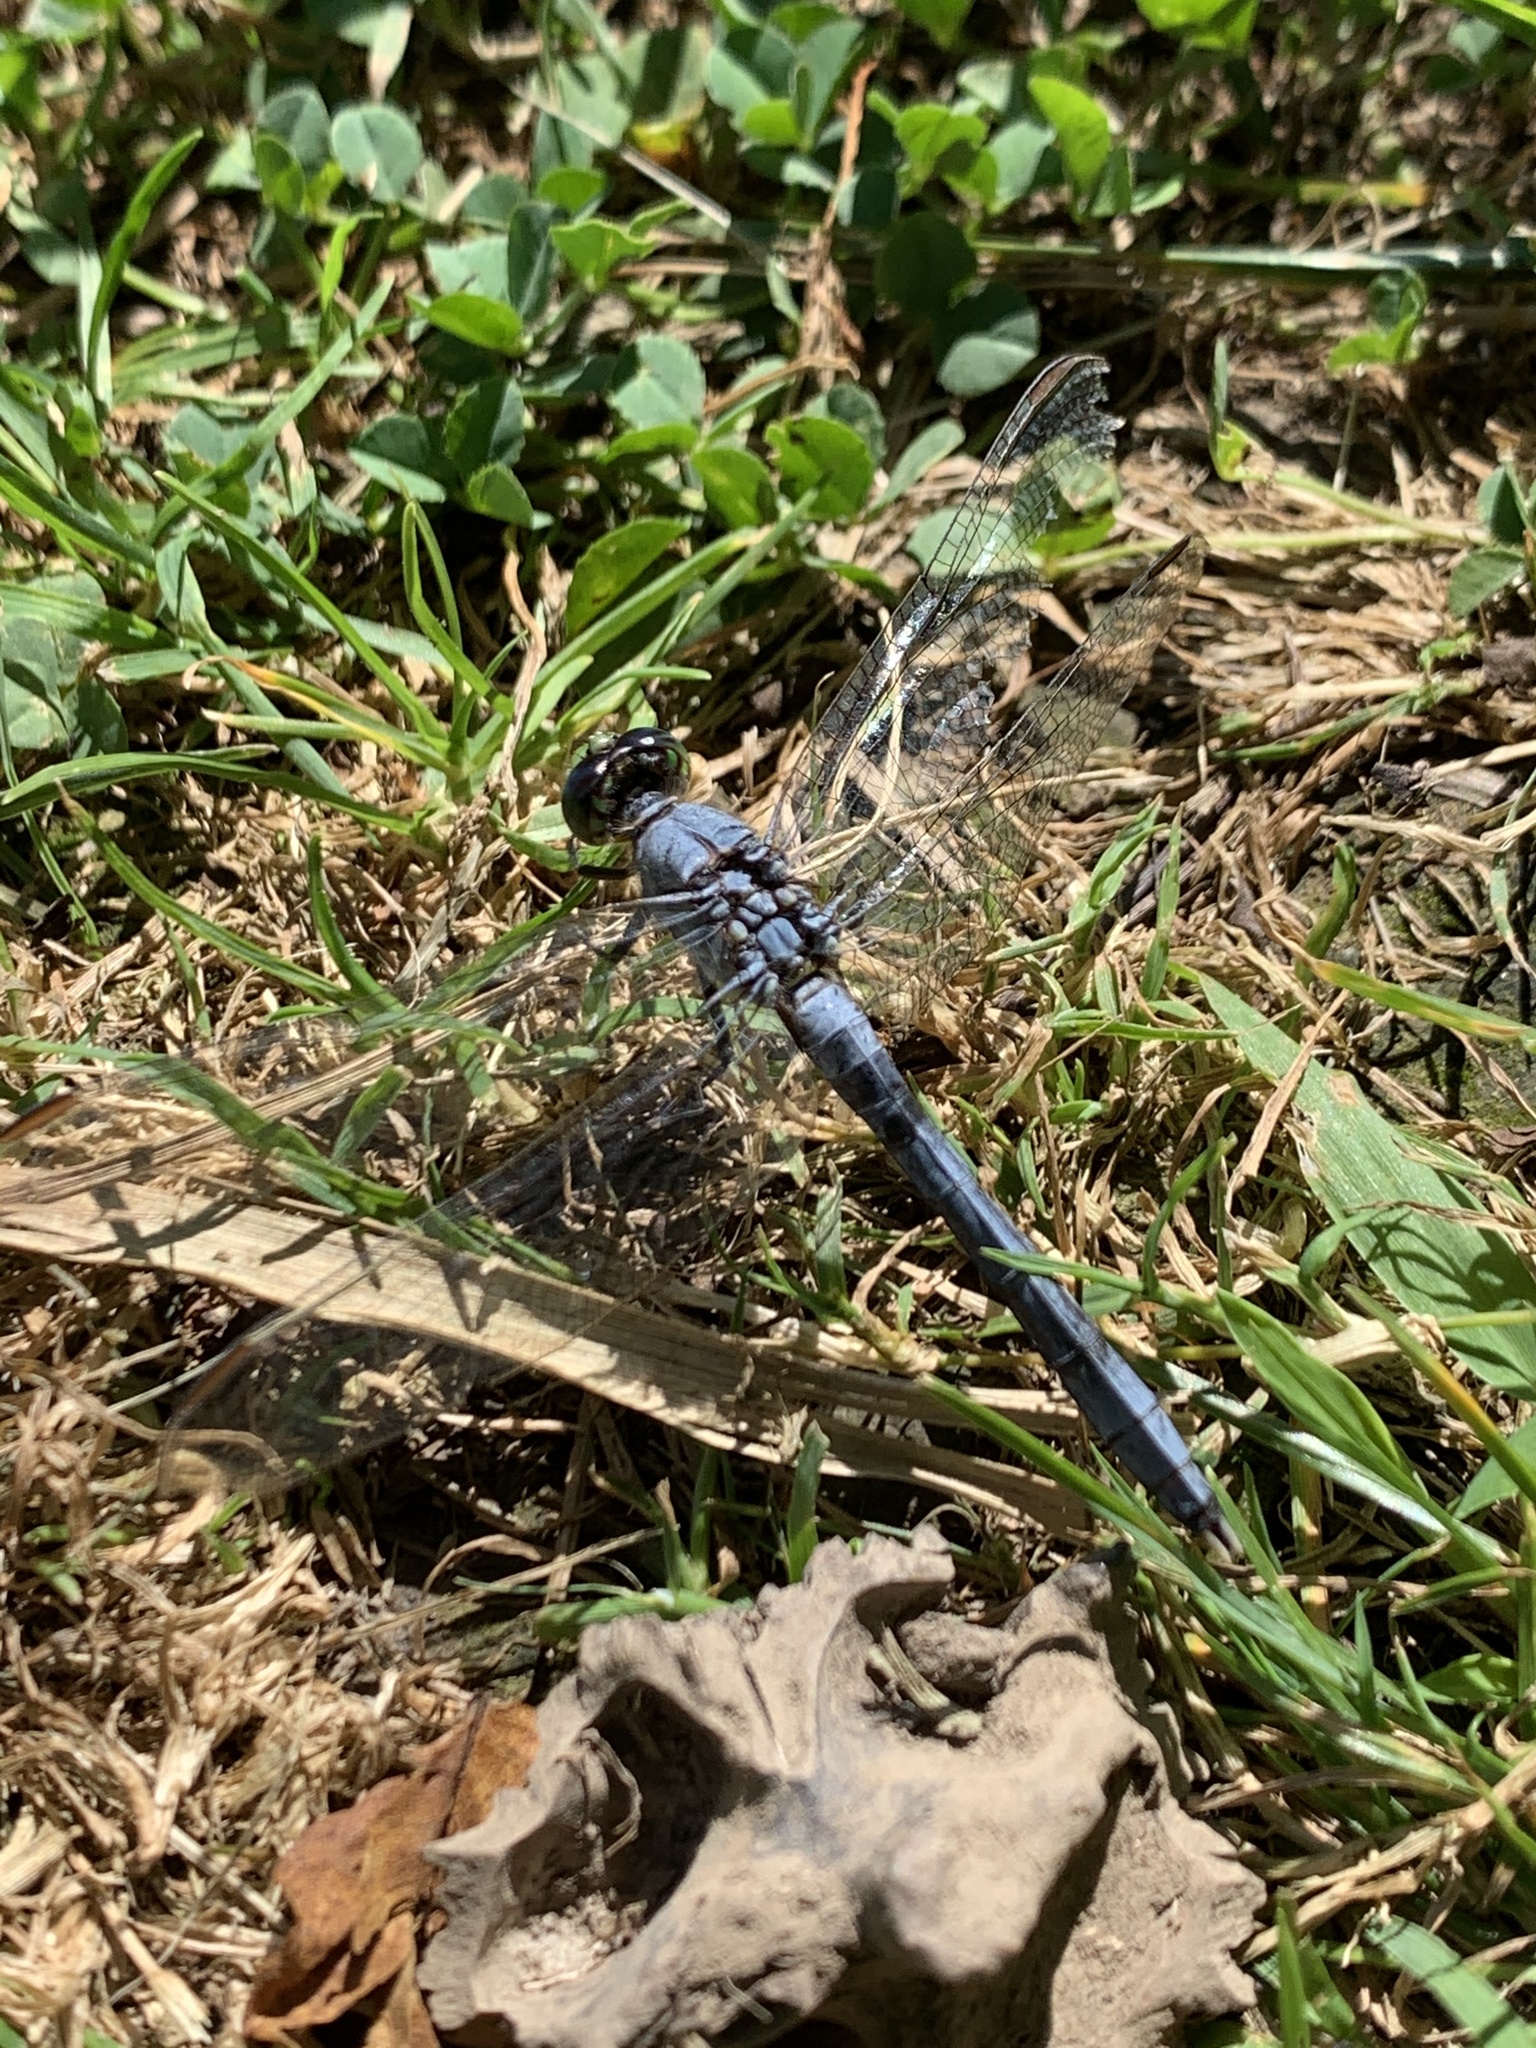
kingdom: Animalia
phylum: Arthropoda
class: Insecta
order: Odonata
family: Libellulidae
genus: Erythemis
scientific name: Erythemis simplicicollis
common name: Eastern pondhawk
